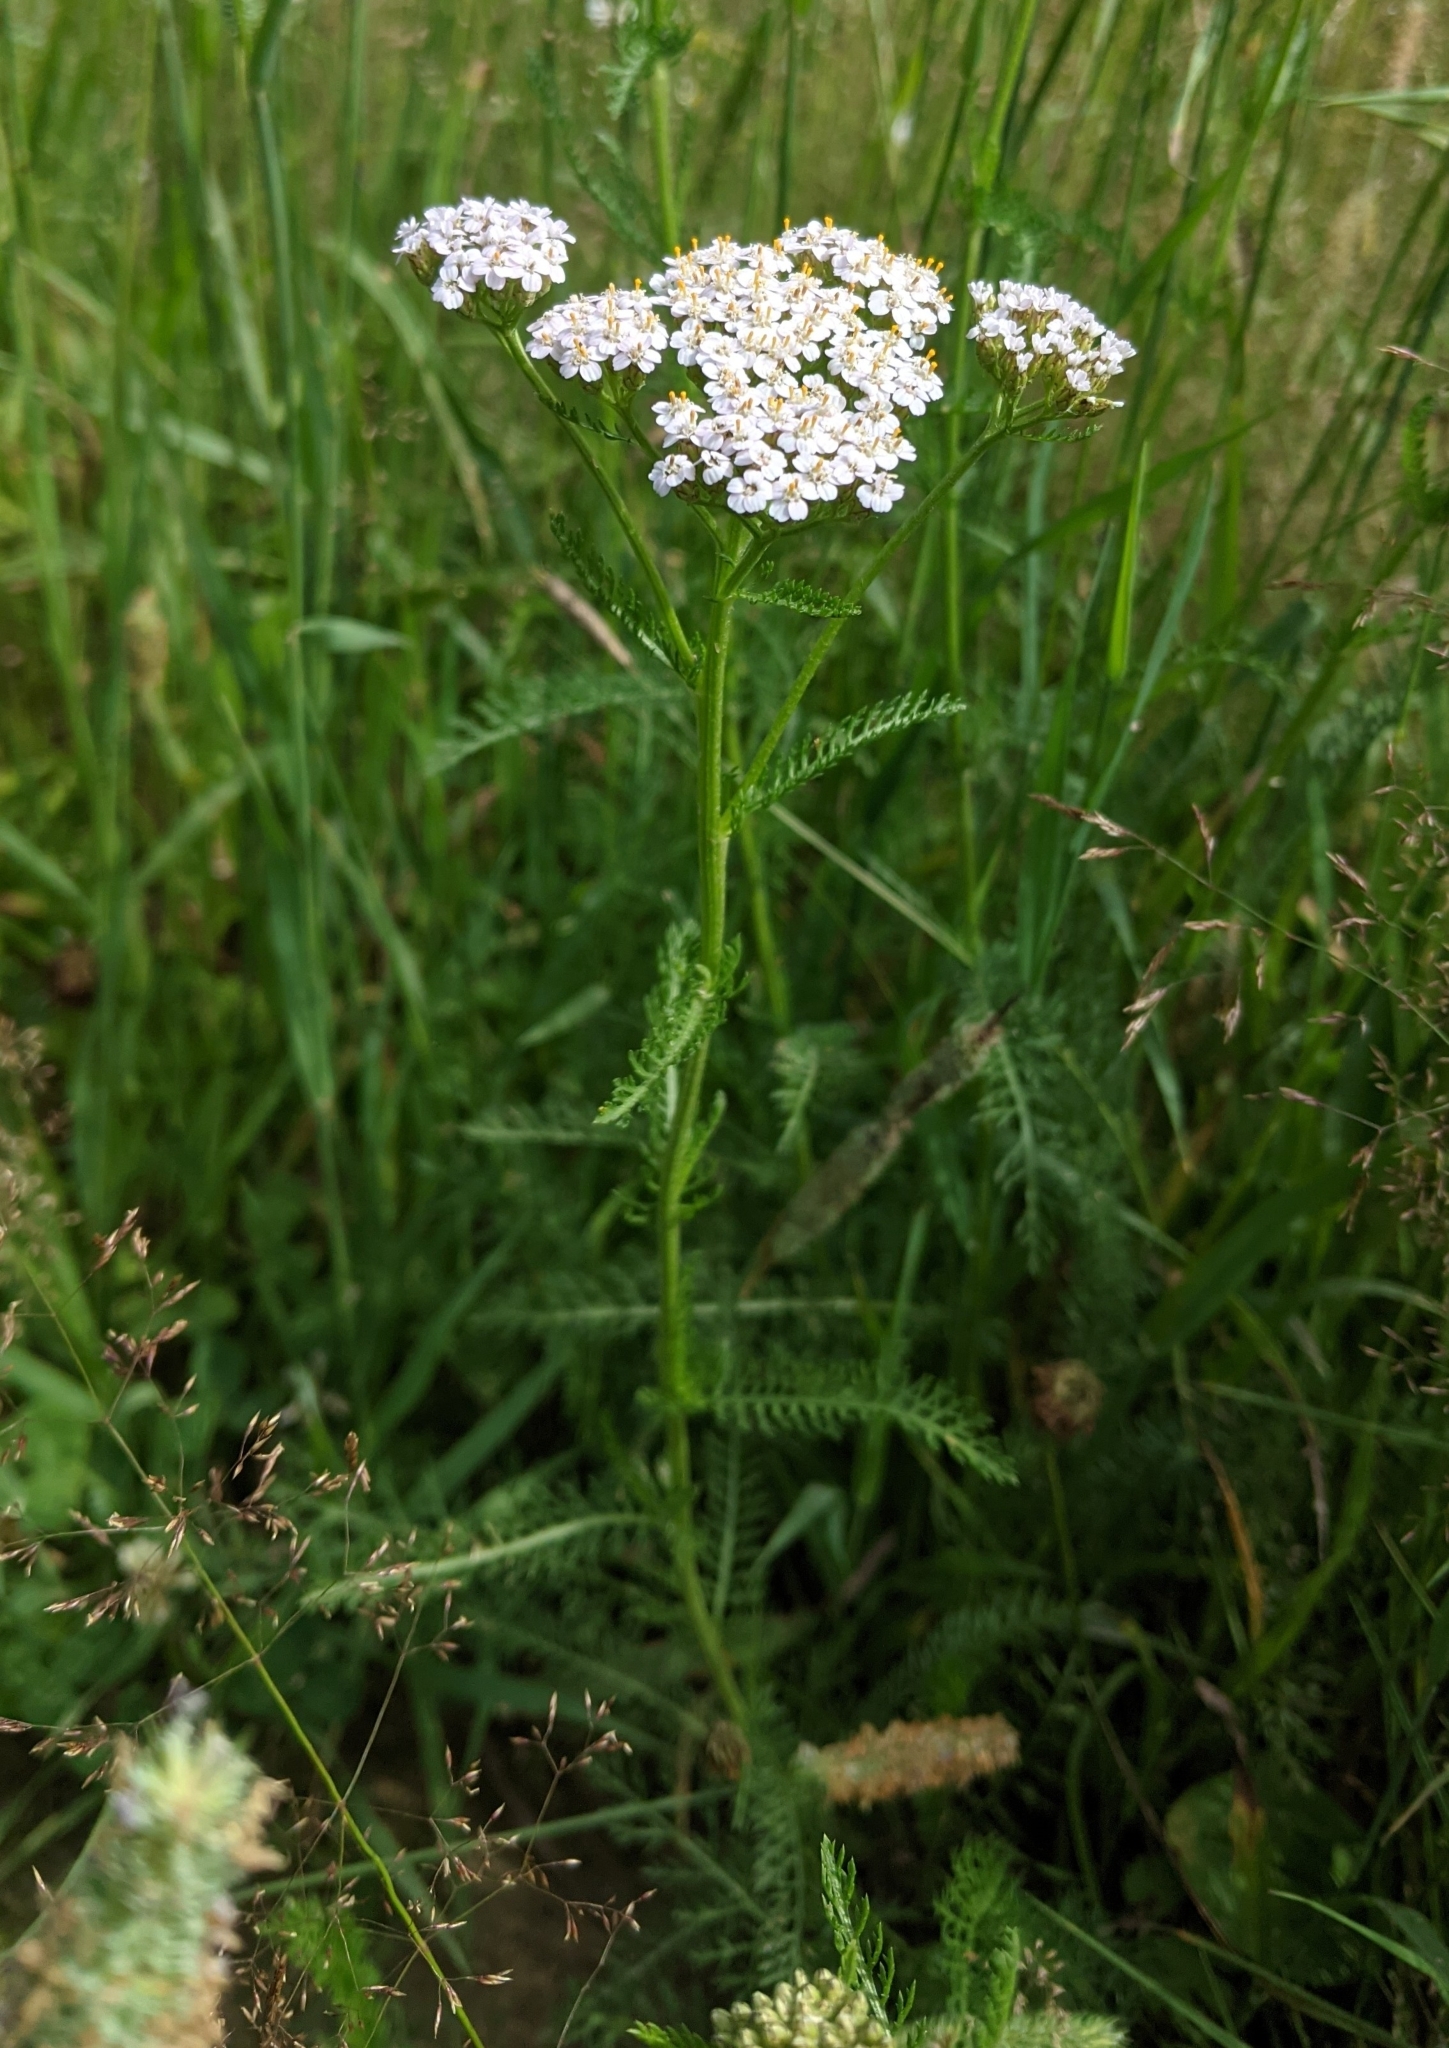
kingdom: Plantae
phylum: Tracheophyta
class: Magnoliopsida
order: Asterales
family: Asteraceae
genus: Achillea
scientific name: Achillea millefolium
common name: Yarrow
